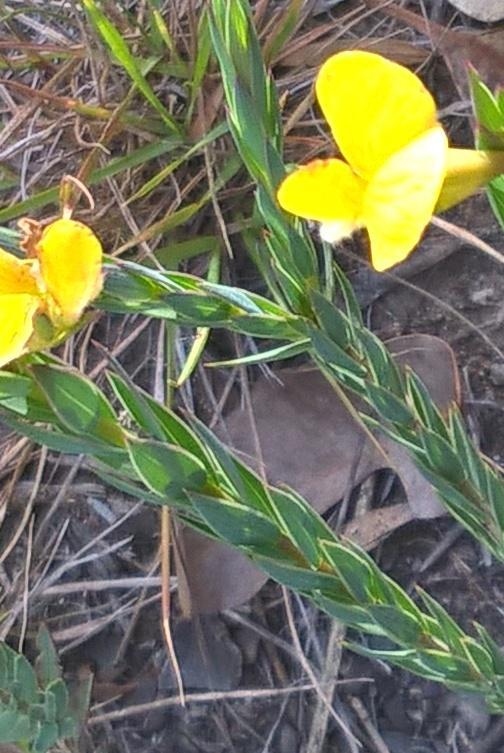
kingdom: Plantae
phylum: Tracheophyta
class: Magnoliopsida
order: Fabales
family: Fabaceae
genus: Aspalathus
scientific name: Aspalathus angustifolia
